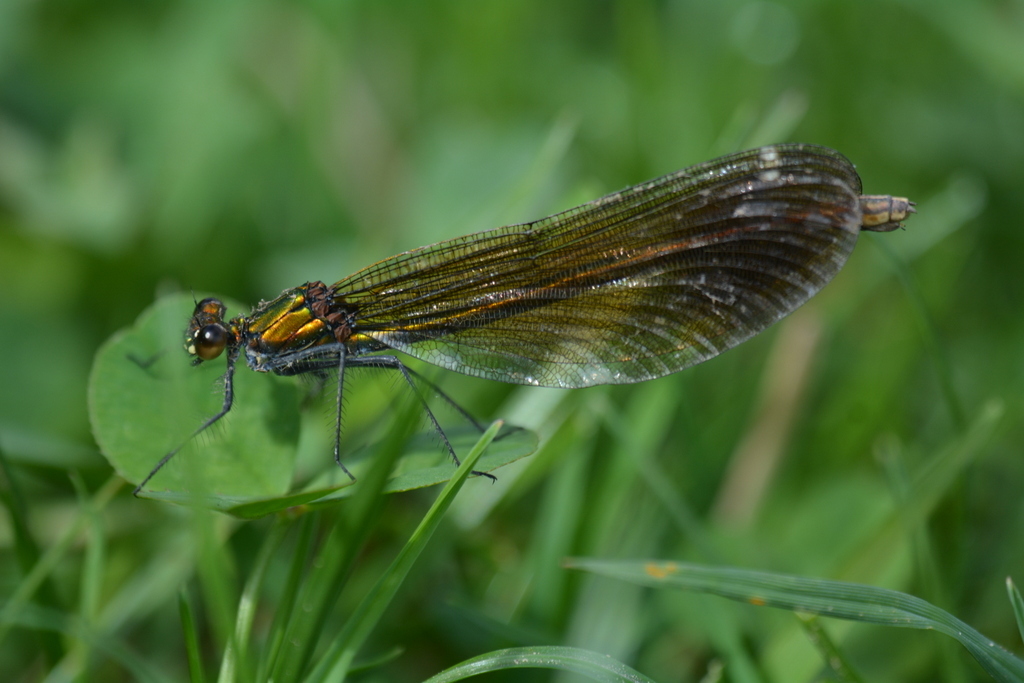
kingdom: Animalia
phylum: Arthropoda
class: Insecta
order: Odonata
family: Calopterygidae
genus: Calopteryx
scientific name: Calopteryx splendens
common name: Banded demoiselle
